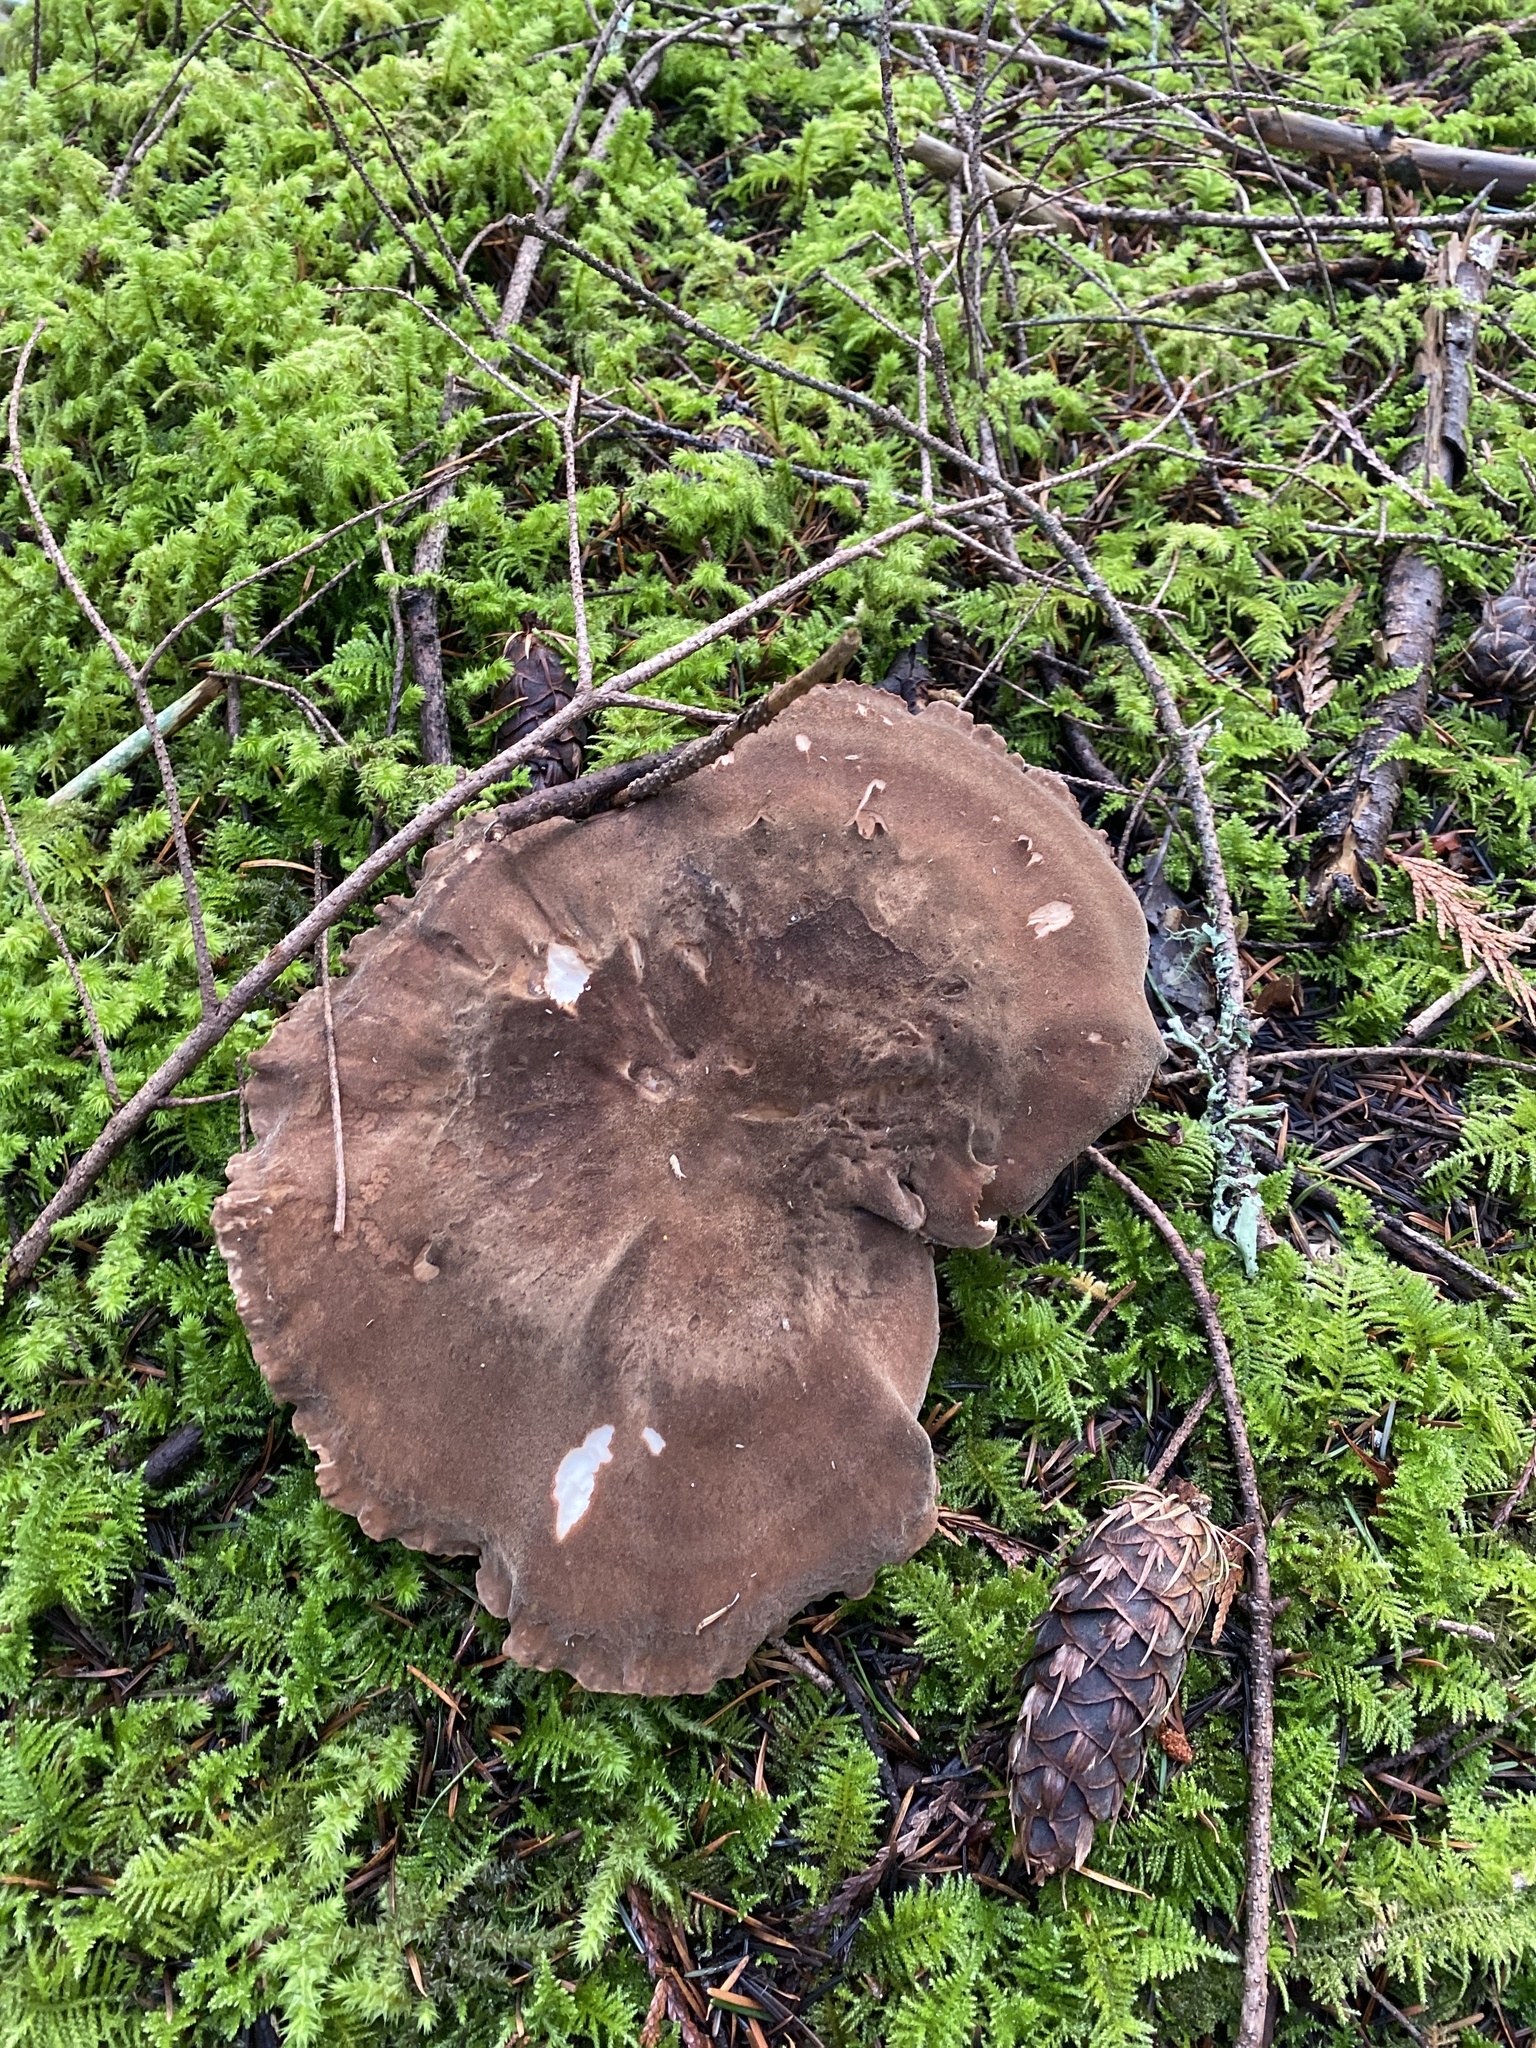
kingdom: Fungi
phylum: Basidiomycota
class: Agaricomycetes
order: Polyporales
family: Dacryobolaceae
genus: Jahnoporus
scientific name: Jahnoporus hirtus
